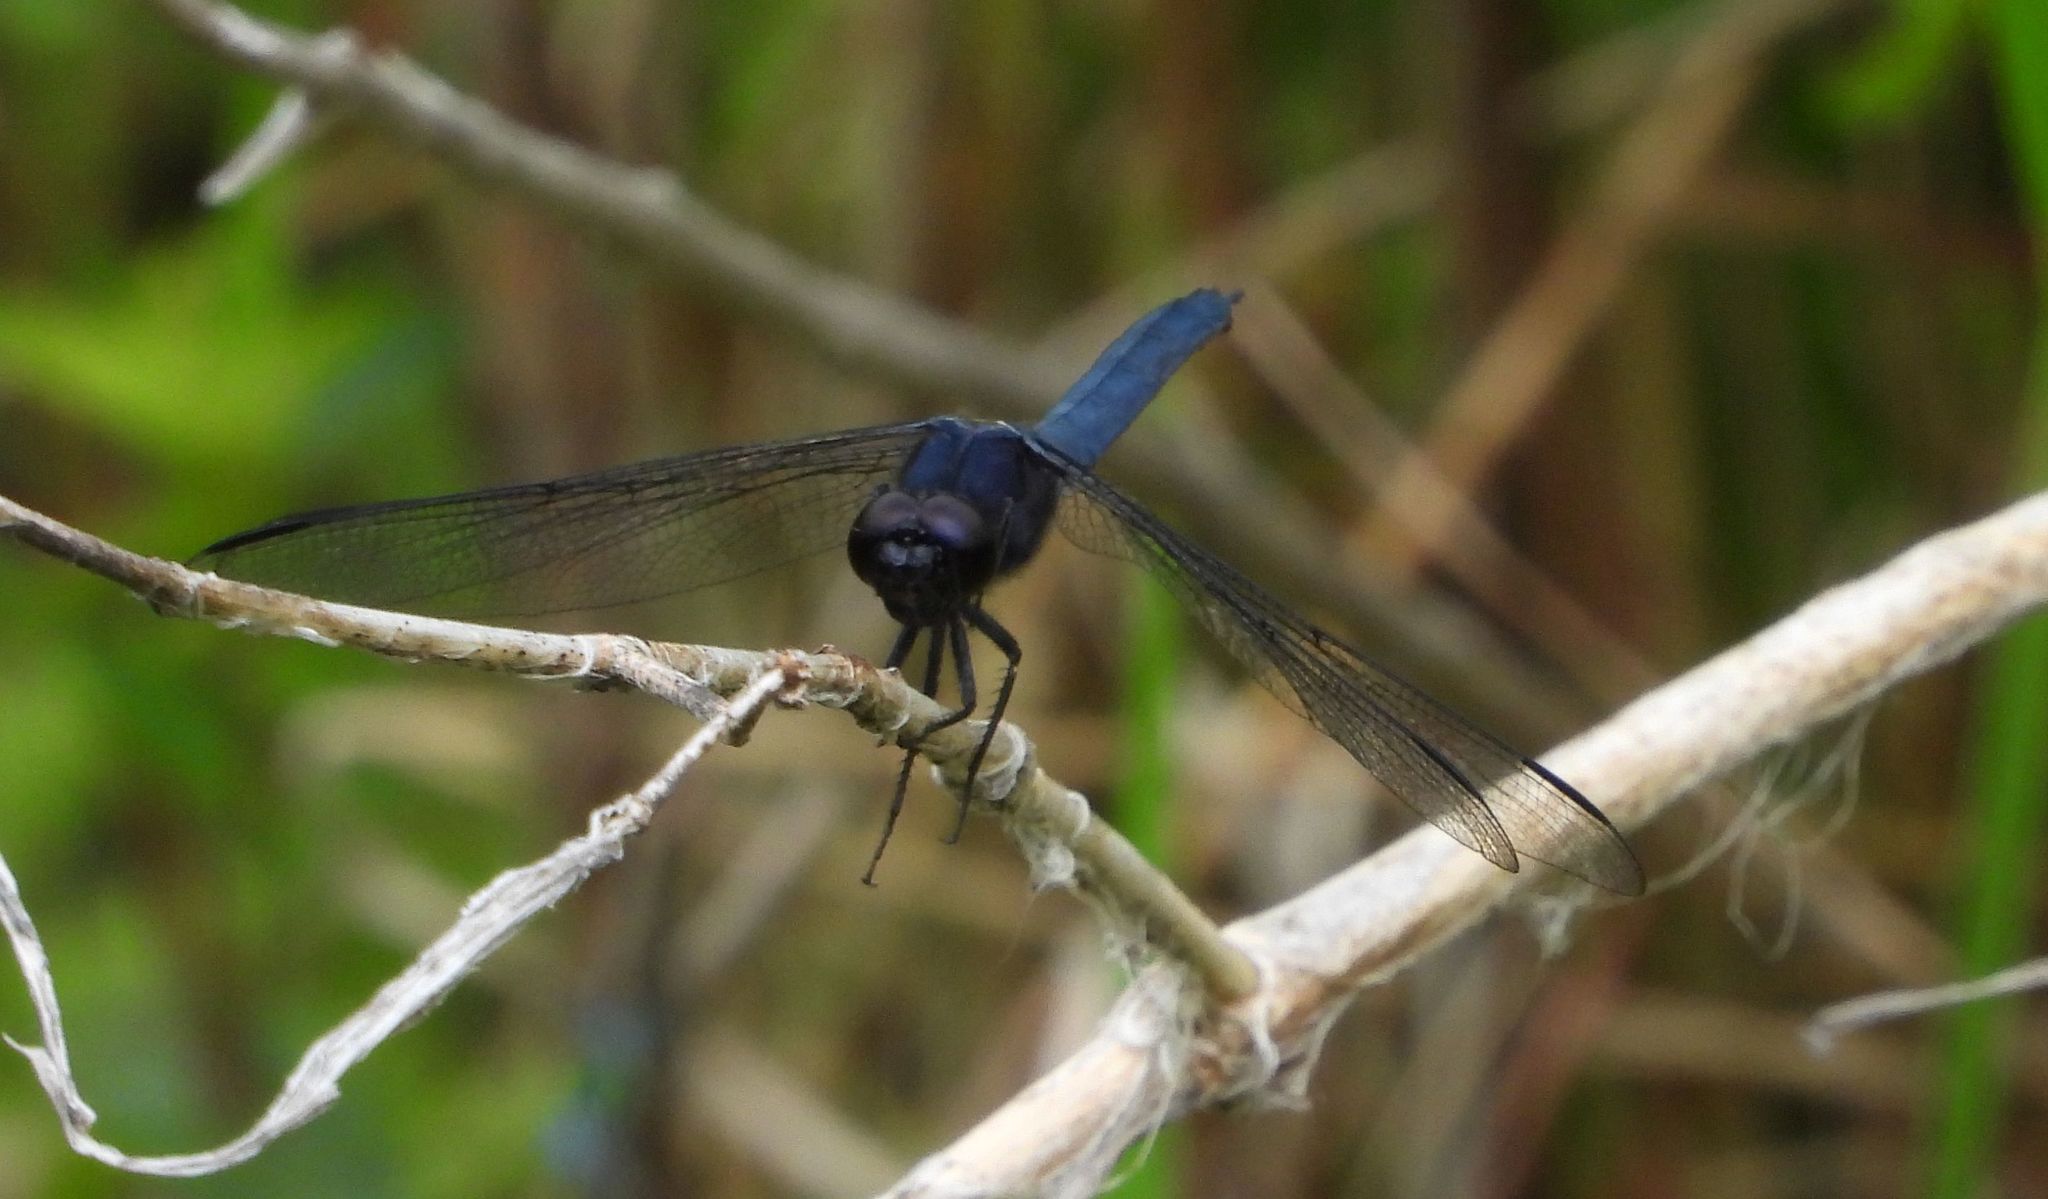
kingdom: Animalia
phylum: Arthropoda
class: Insecta
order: Odonata
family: Libellulidae
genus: Libellula
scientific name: Libellula incesta
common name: Slaty skimmer
